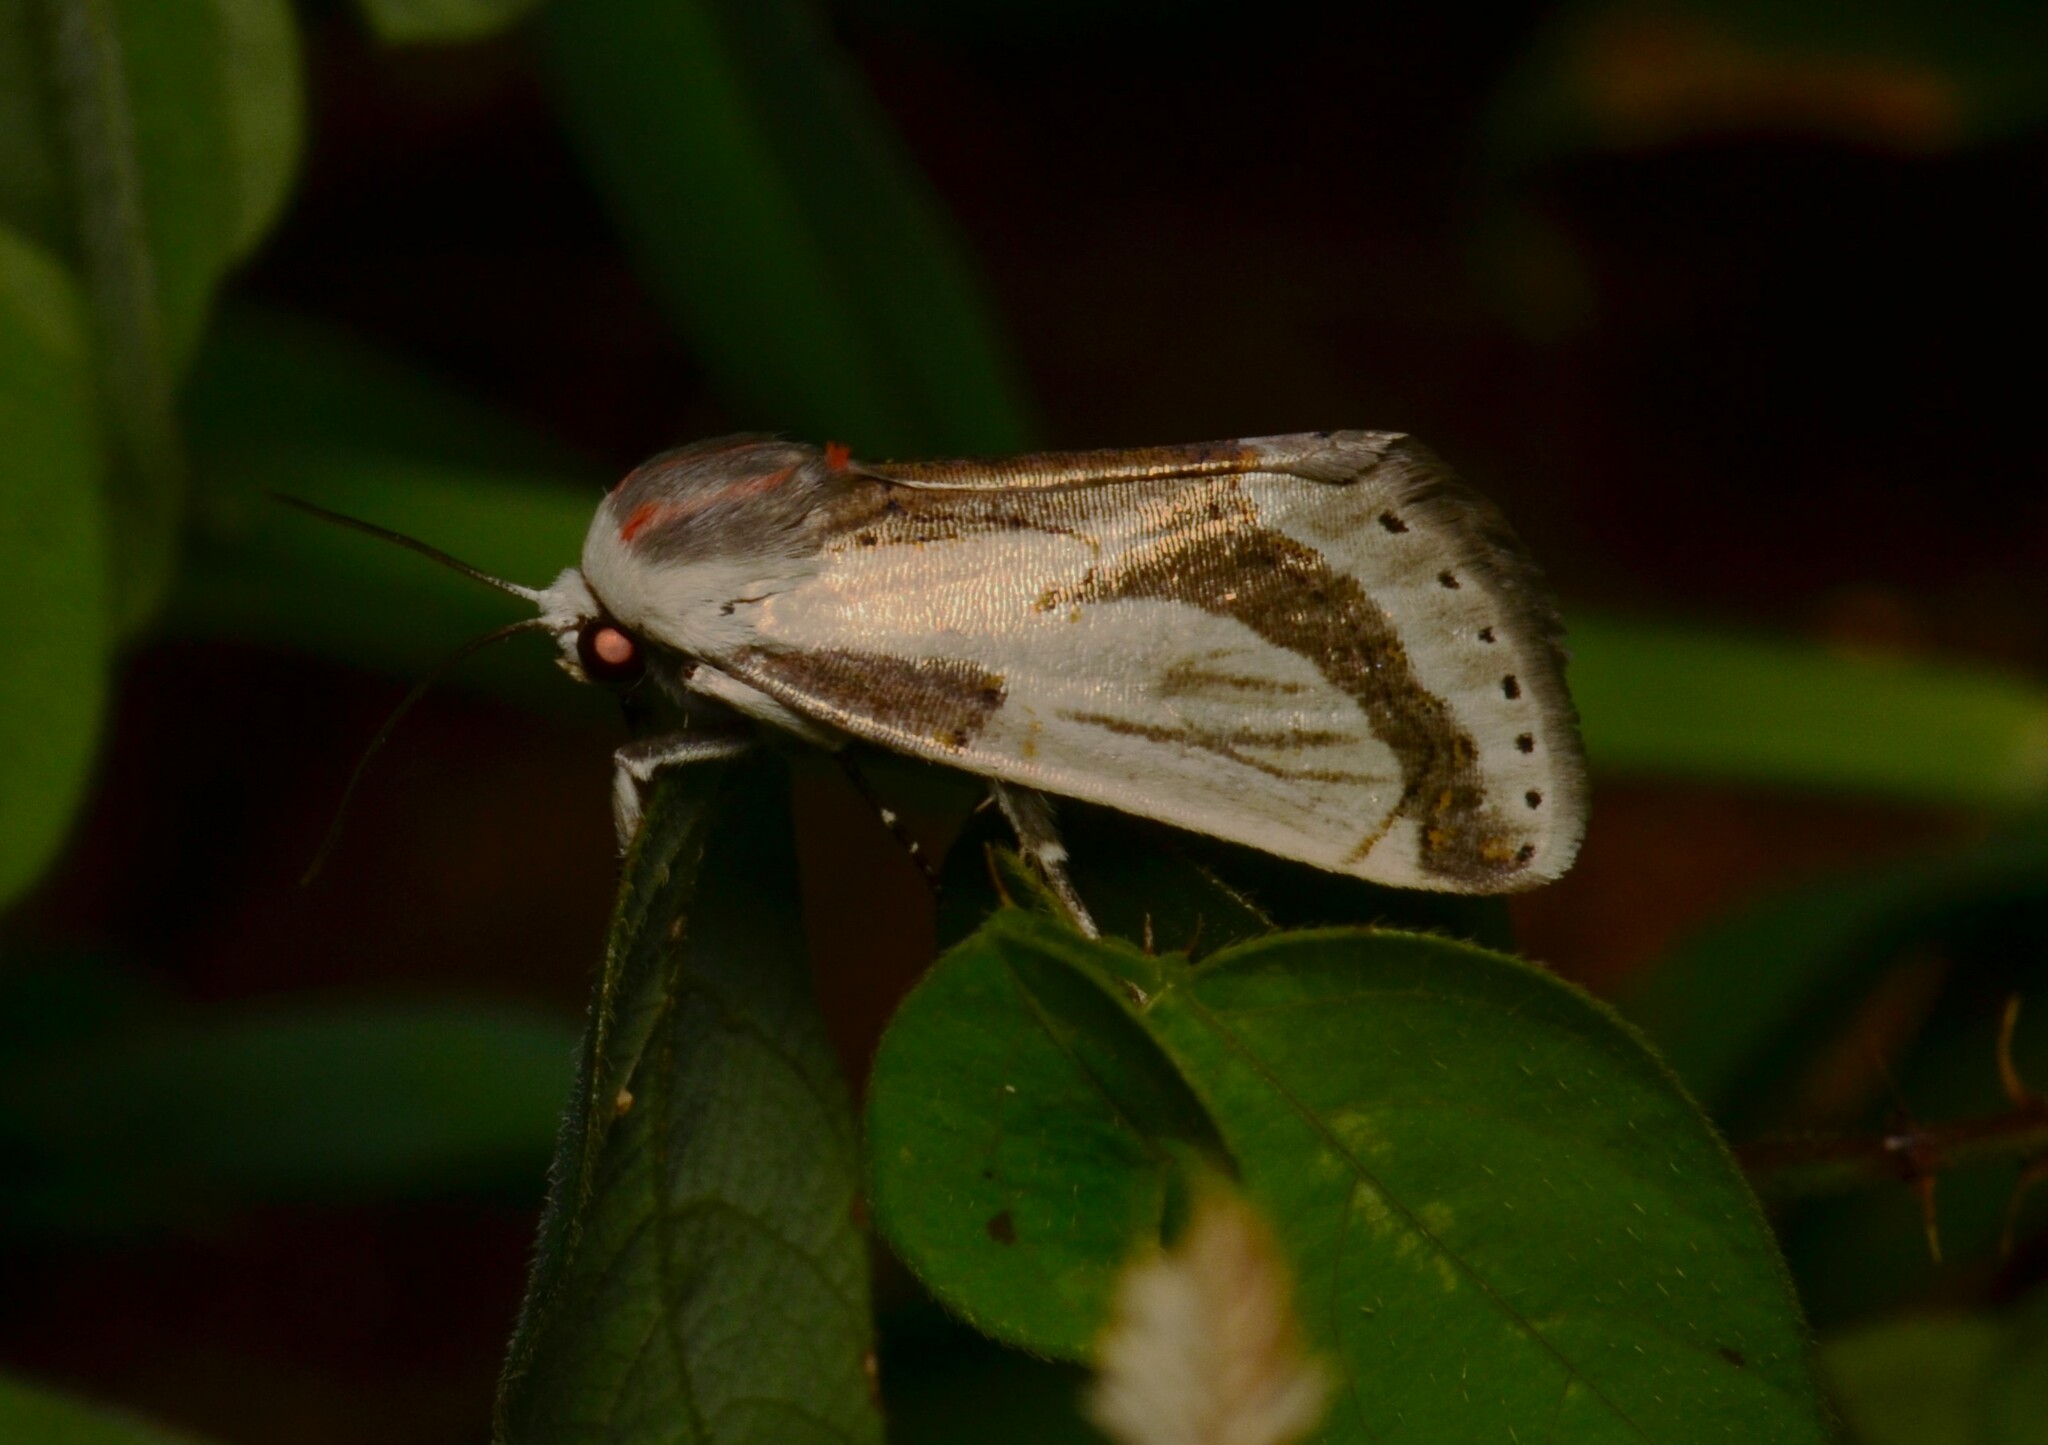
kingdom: Animalia
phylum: Arthropoda
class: Insecta
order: Lepidoptera
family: Erebidae
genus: Metaplusia
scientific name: Metaplusia argyra
